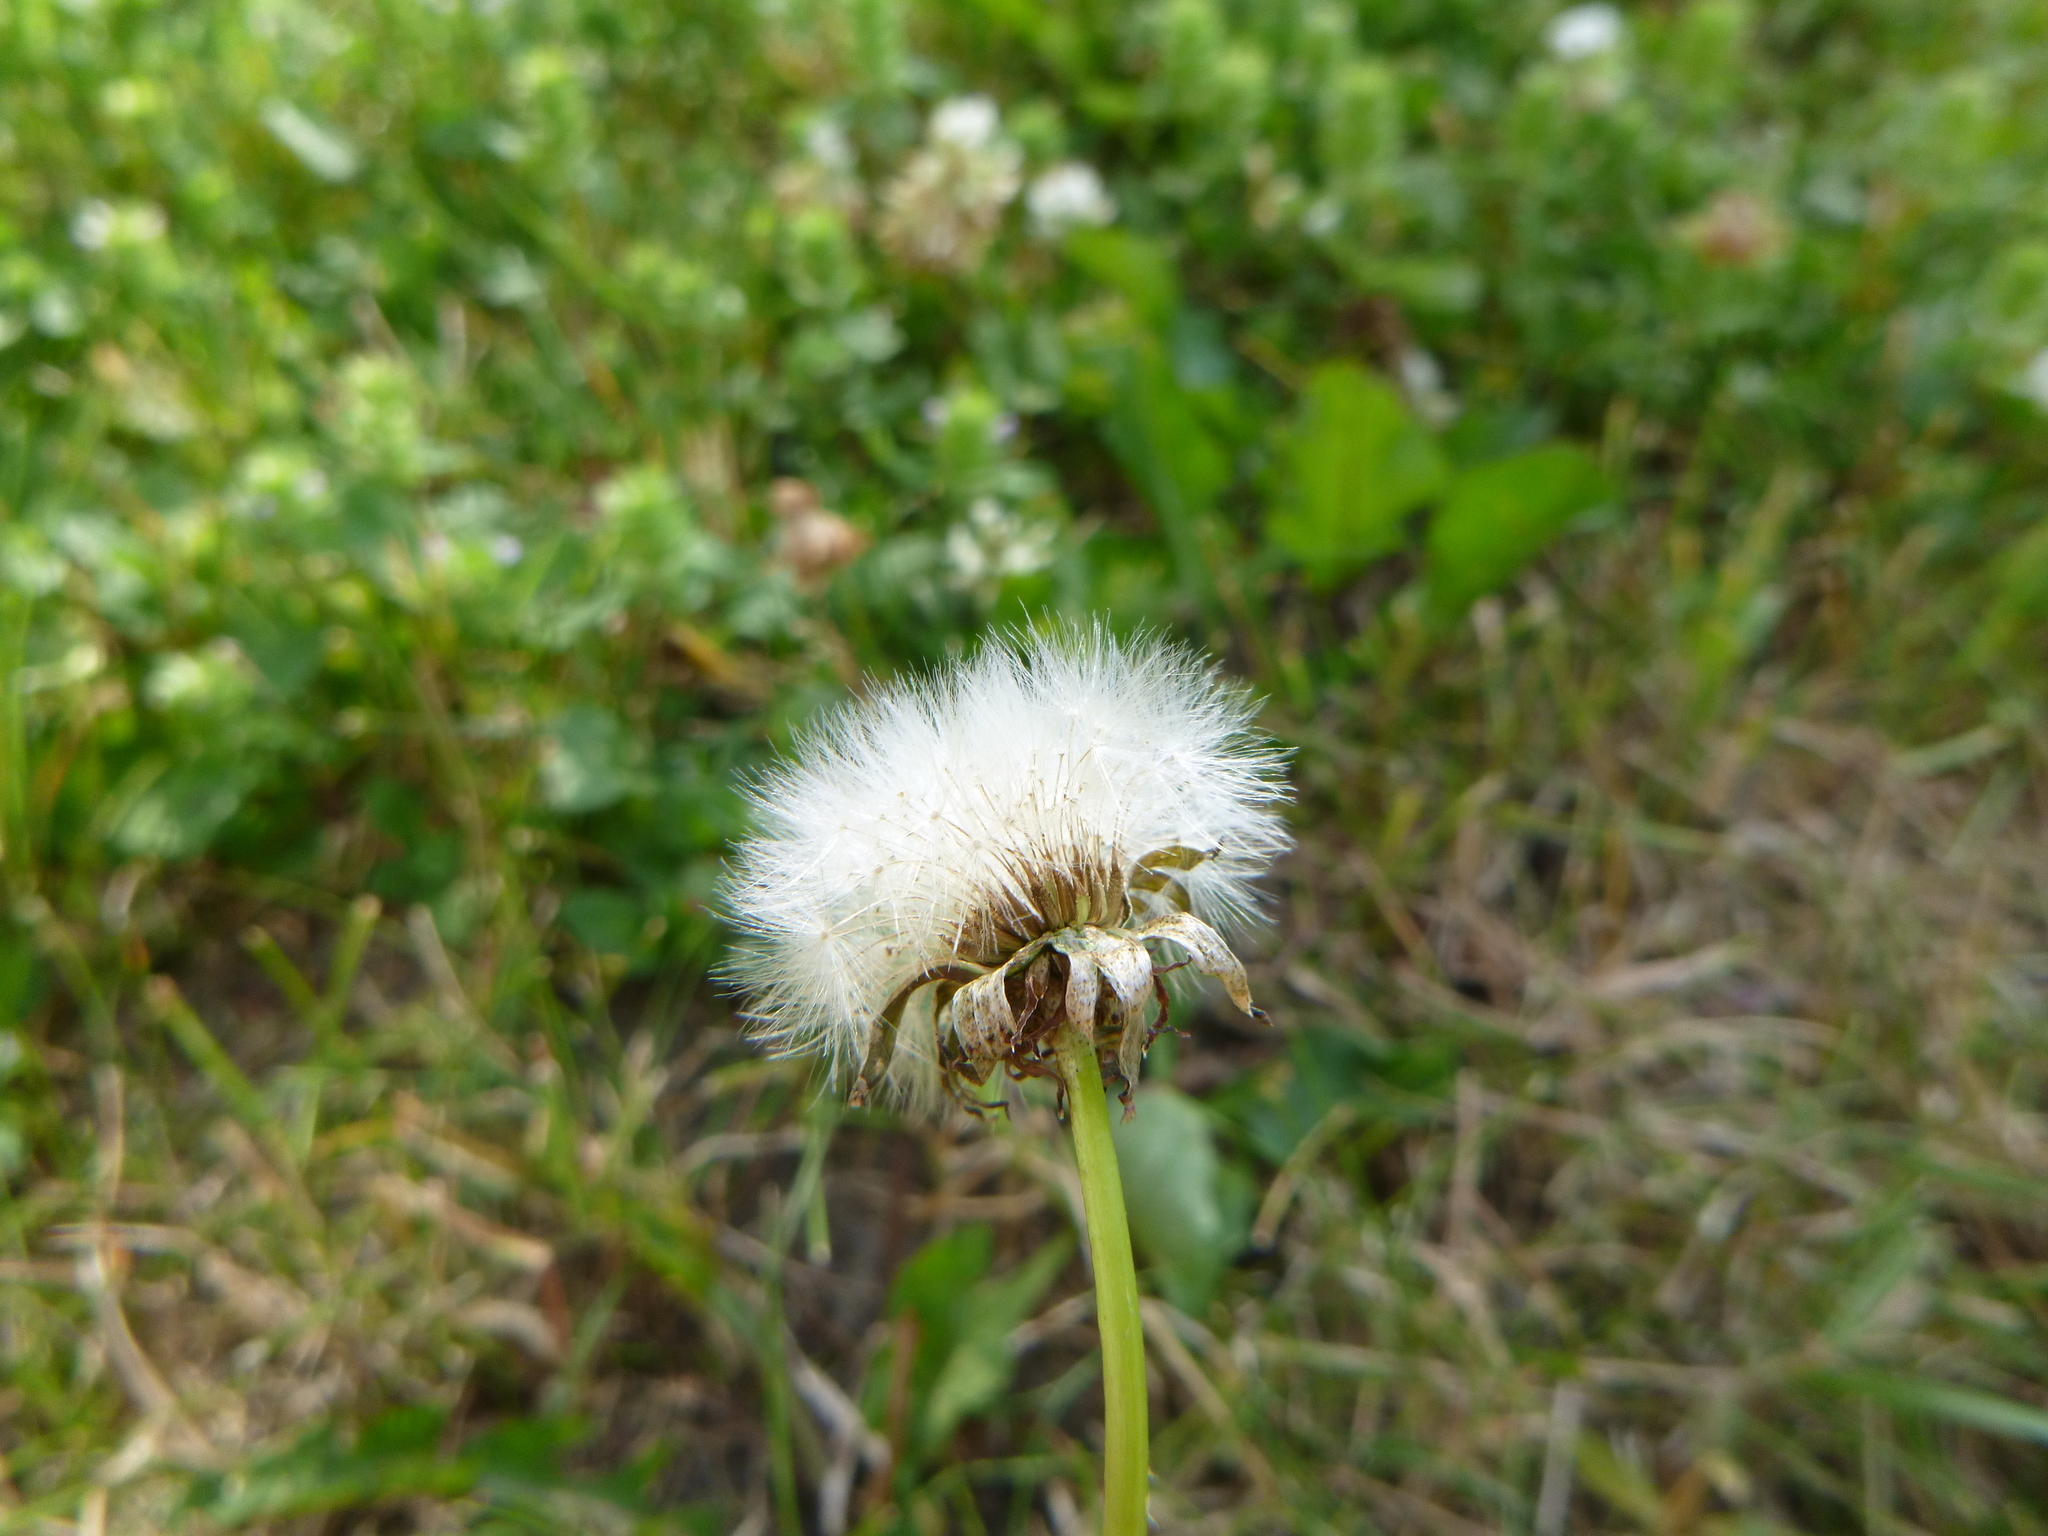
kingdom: Plantae
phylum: Tracheophyta
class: Magnoliopsida
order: Asterales
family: Asteraceae
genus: Taraxacum
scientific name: Taraxacum officinale
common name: Common dandelion
